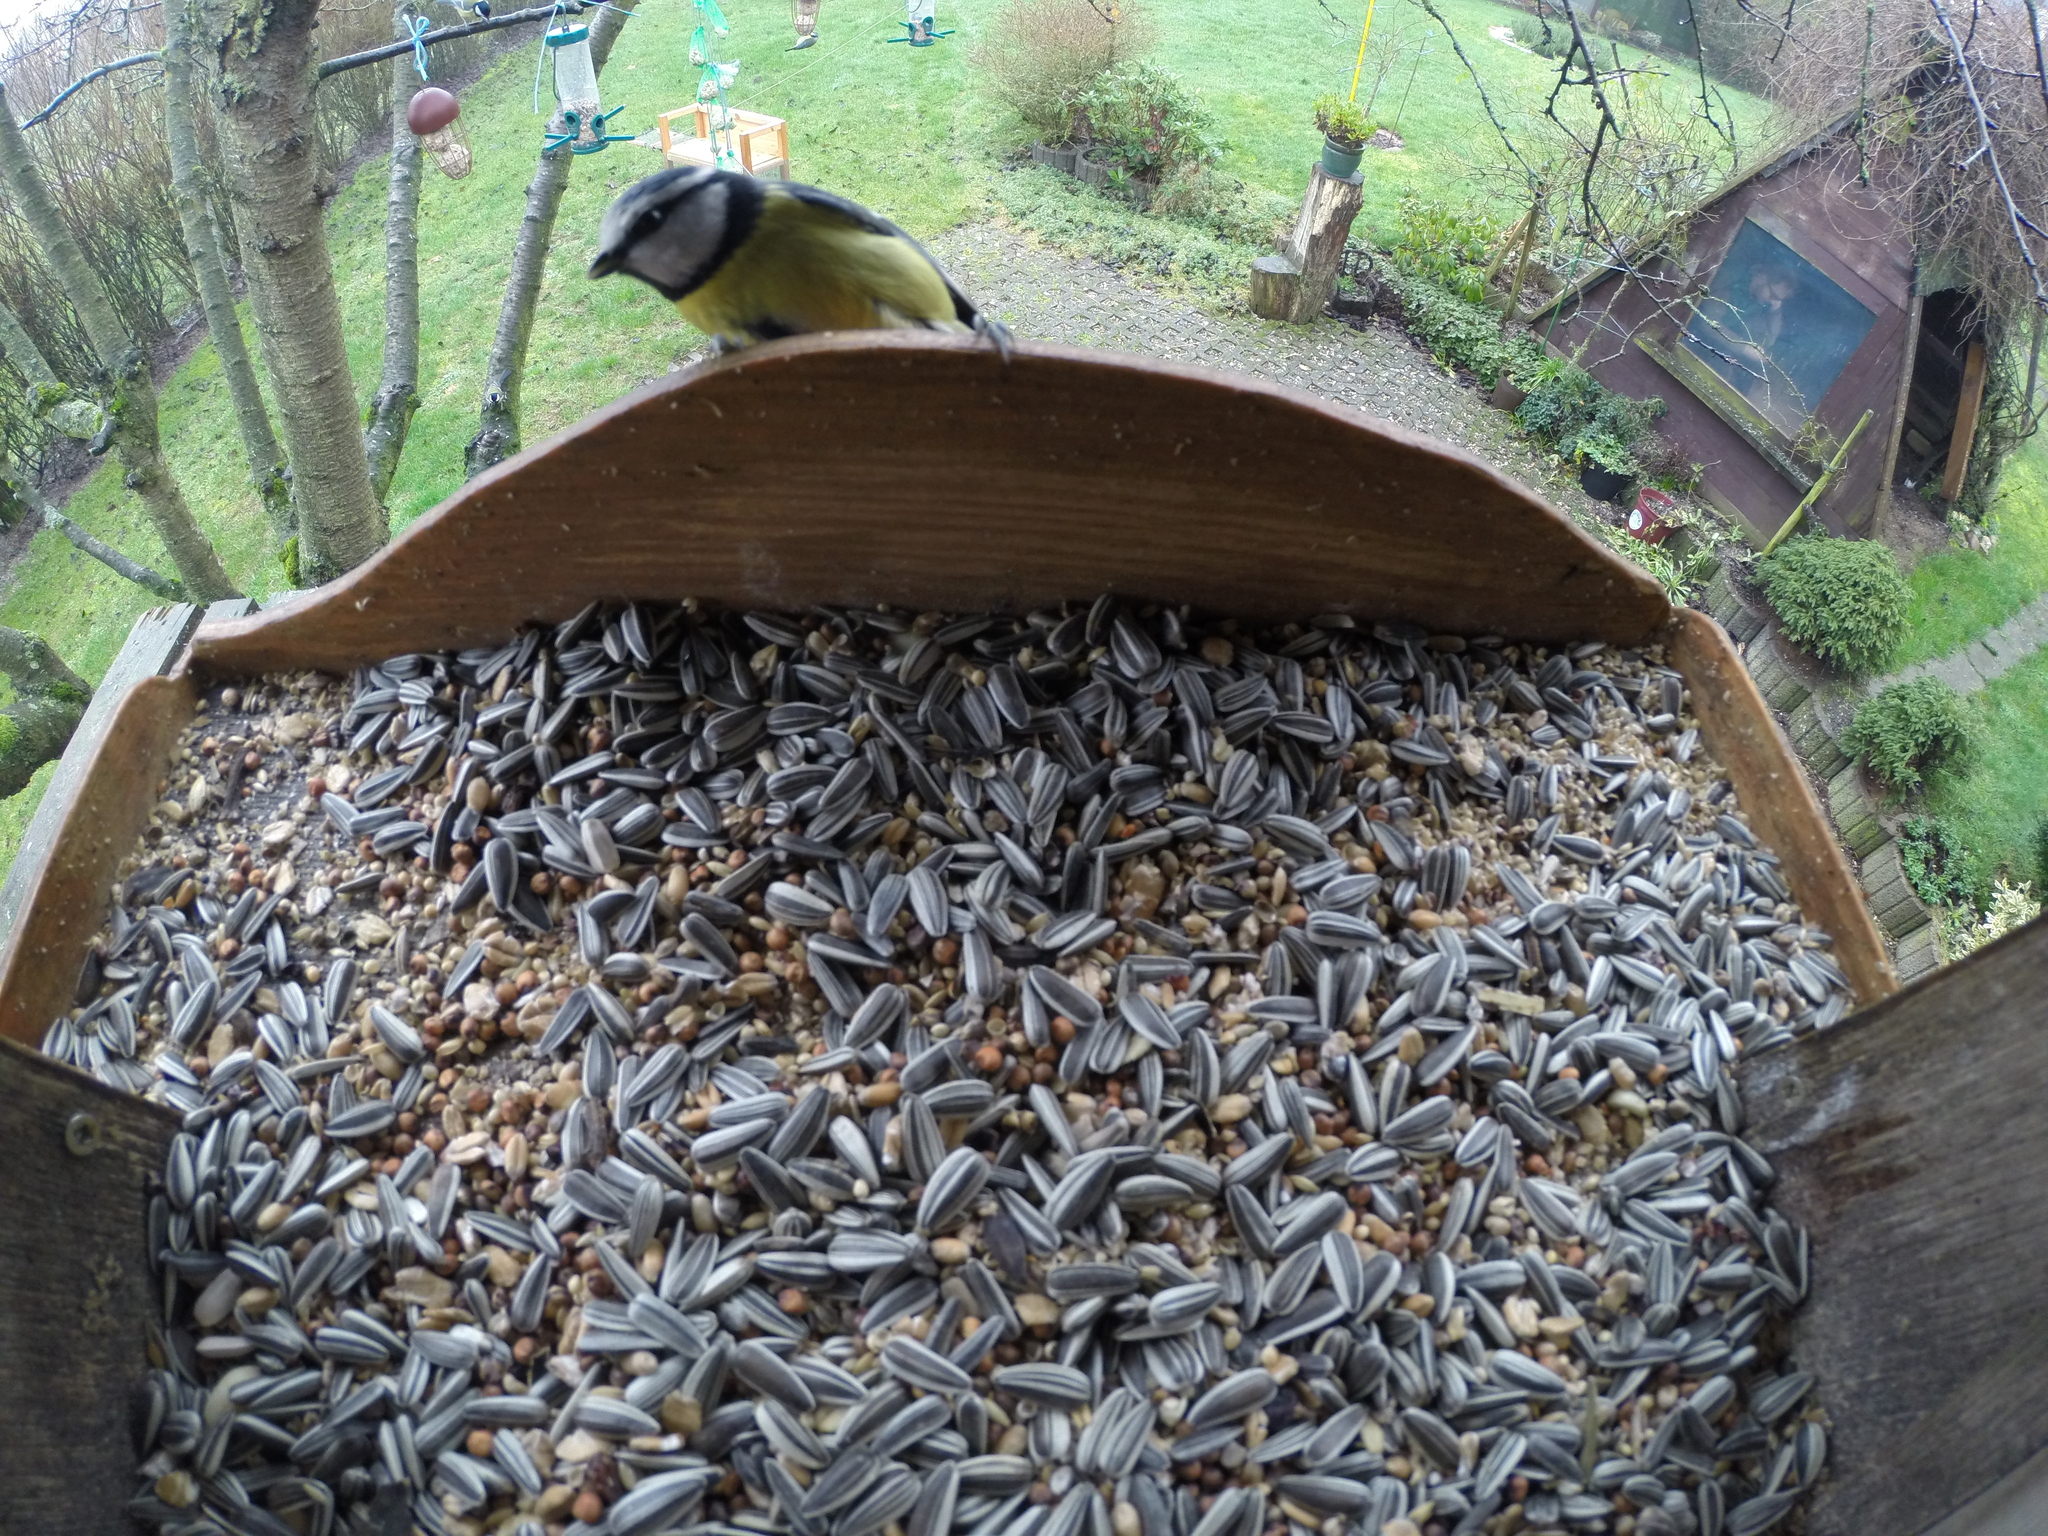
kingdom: Animalia
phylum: Chordata
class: Aves
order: Passeriformes
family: Paridae
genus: Cyanistes
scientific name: Cyanistes caeruleus
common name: Eurasian blue tit
